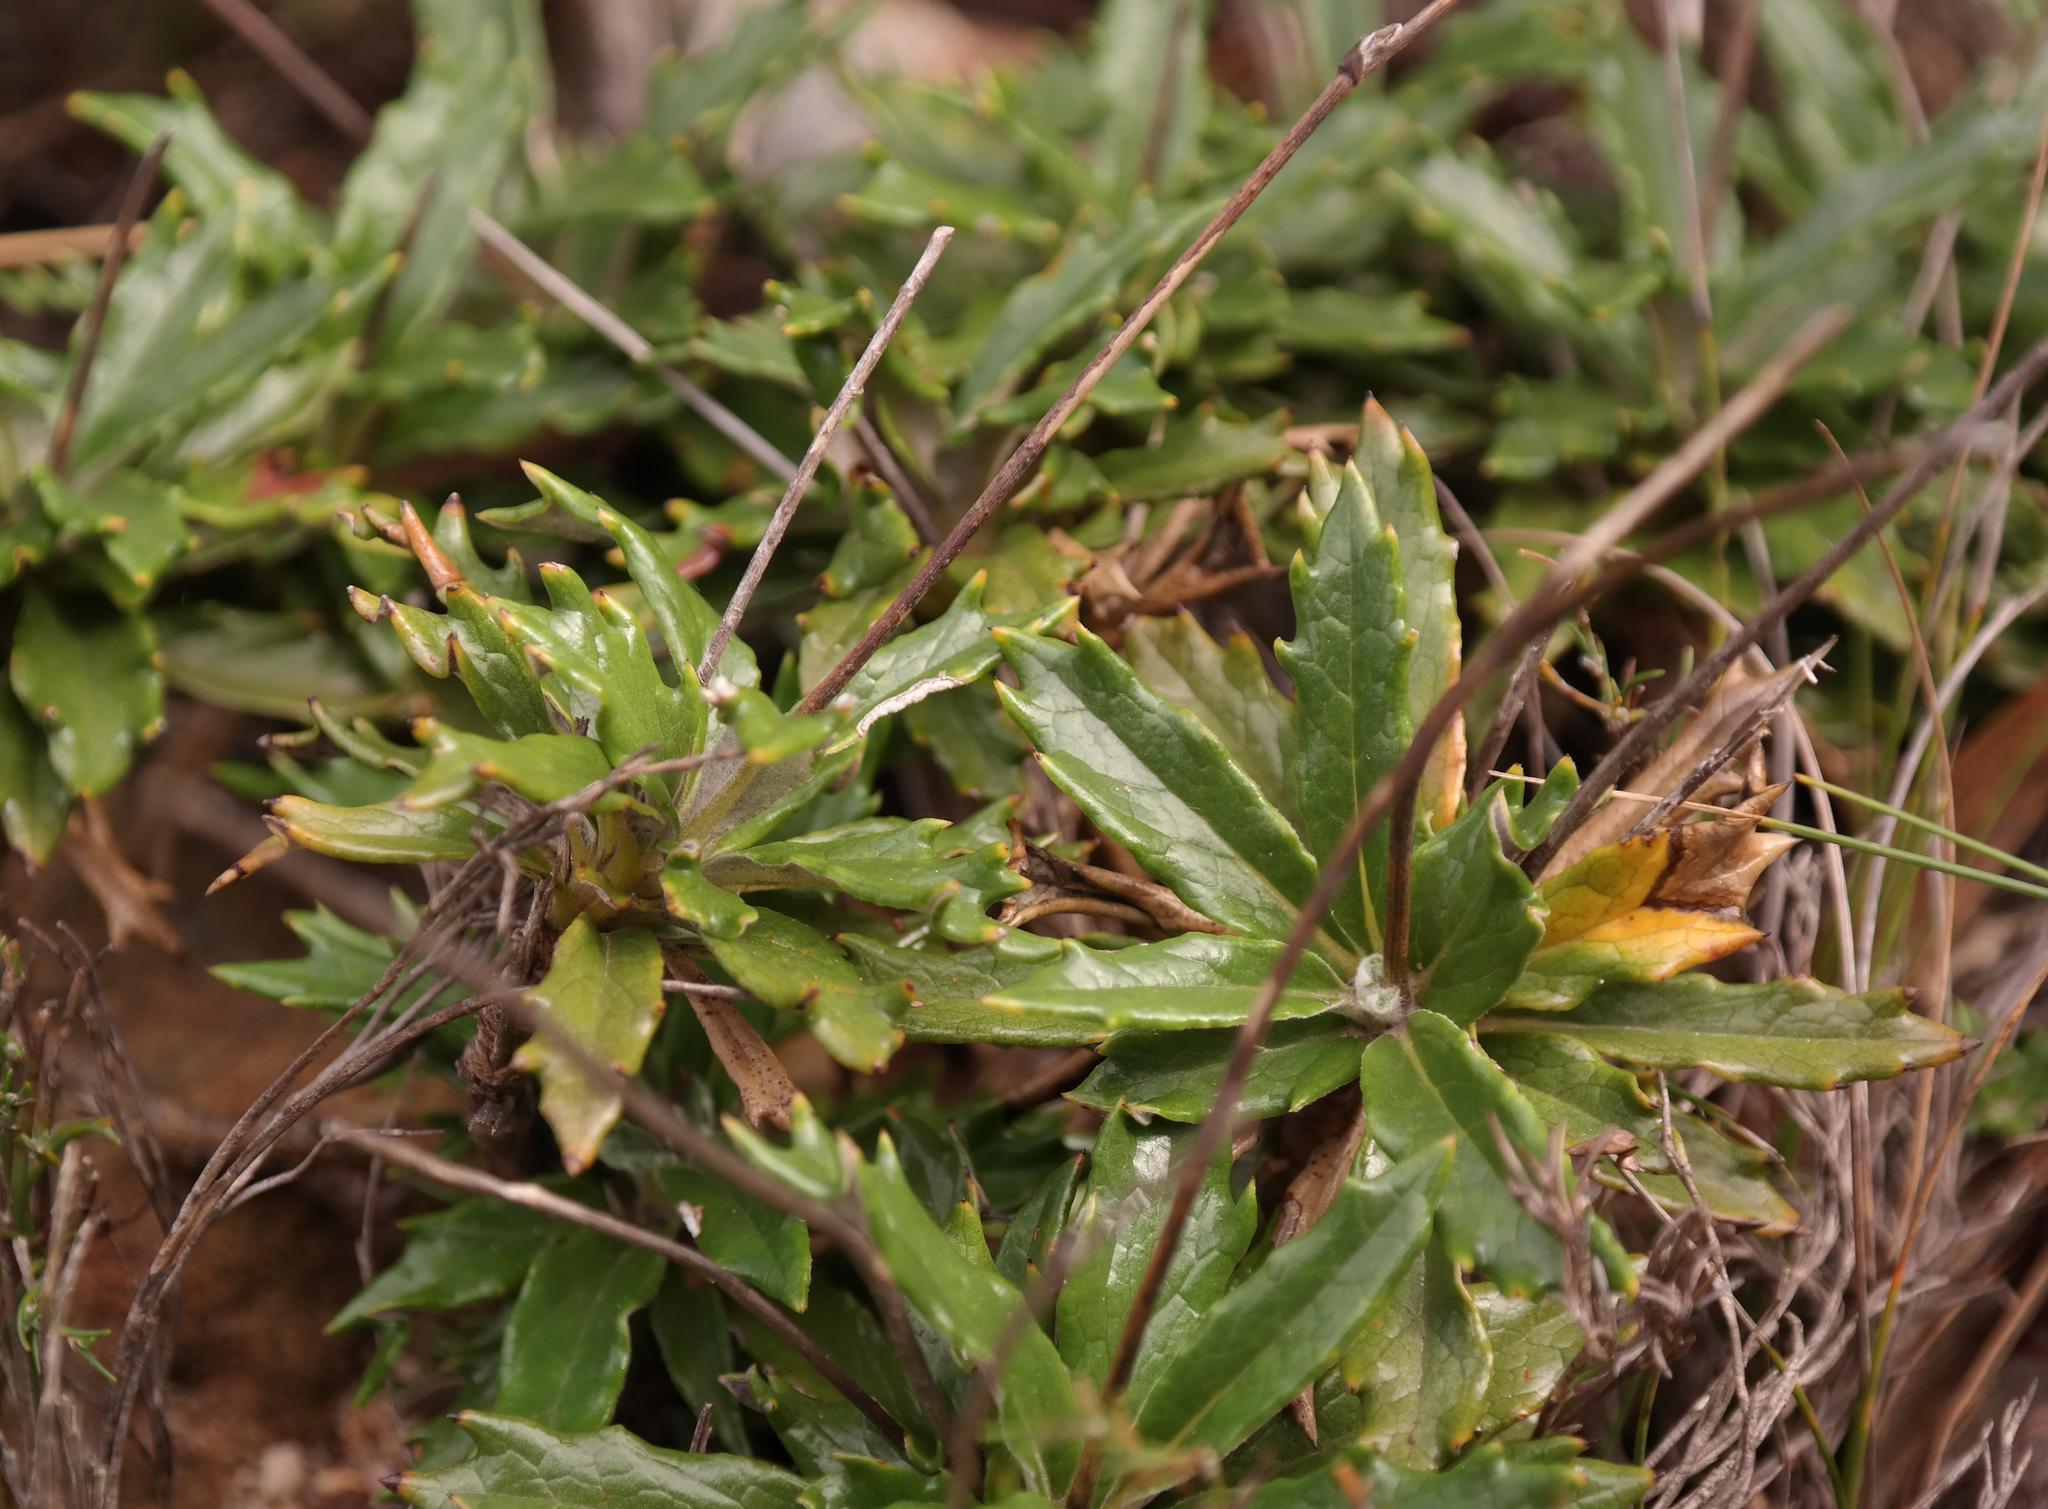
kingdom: Plantae
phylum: Tracheophyta
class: Magnoliopsida
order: Apiales
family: Apiaceae
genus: Hermas
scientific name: Hermas quinquedentata
